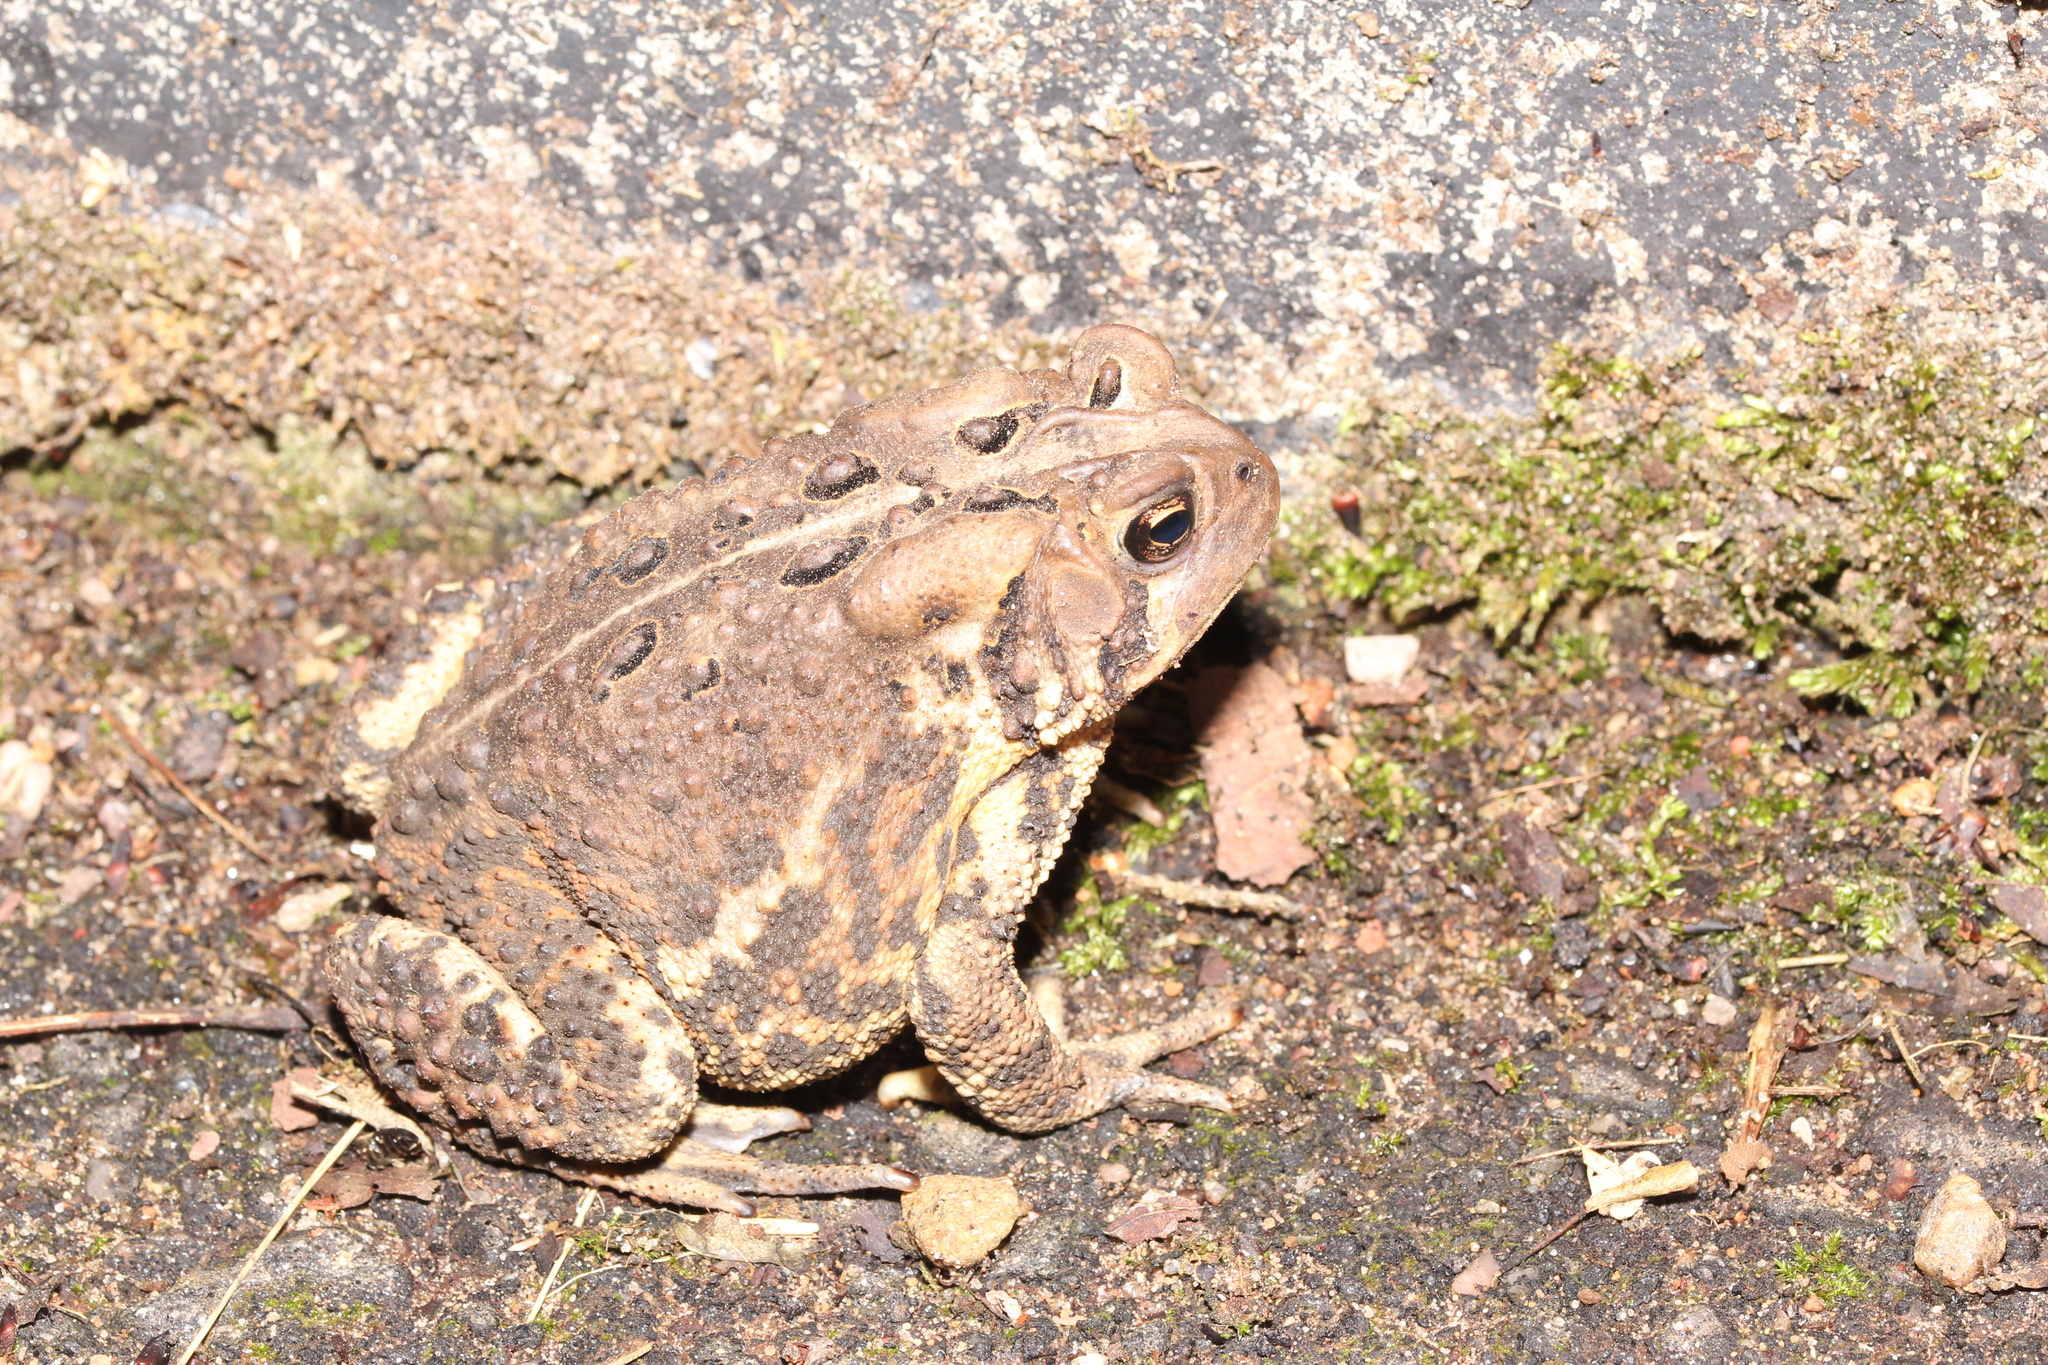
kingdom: Animalia
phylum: Chordata
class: Amphibia
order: Anura
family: Bufonidae
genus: Anaxyrus
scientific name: Anaxyrus americanus
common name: American toad
